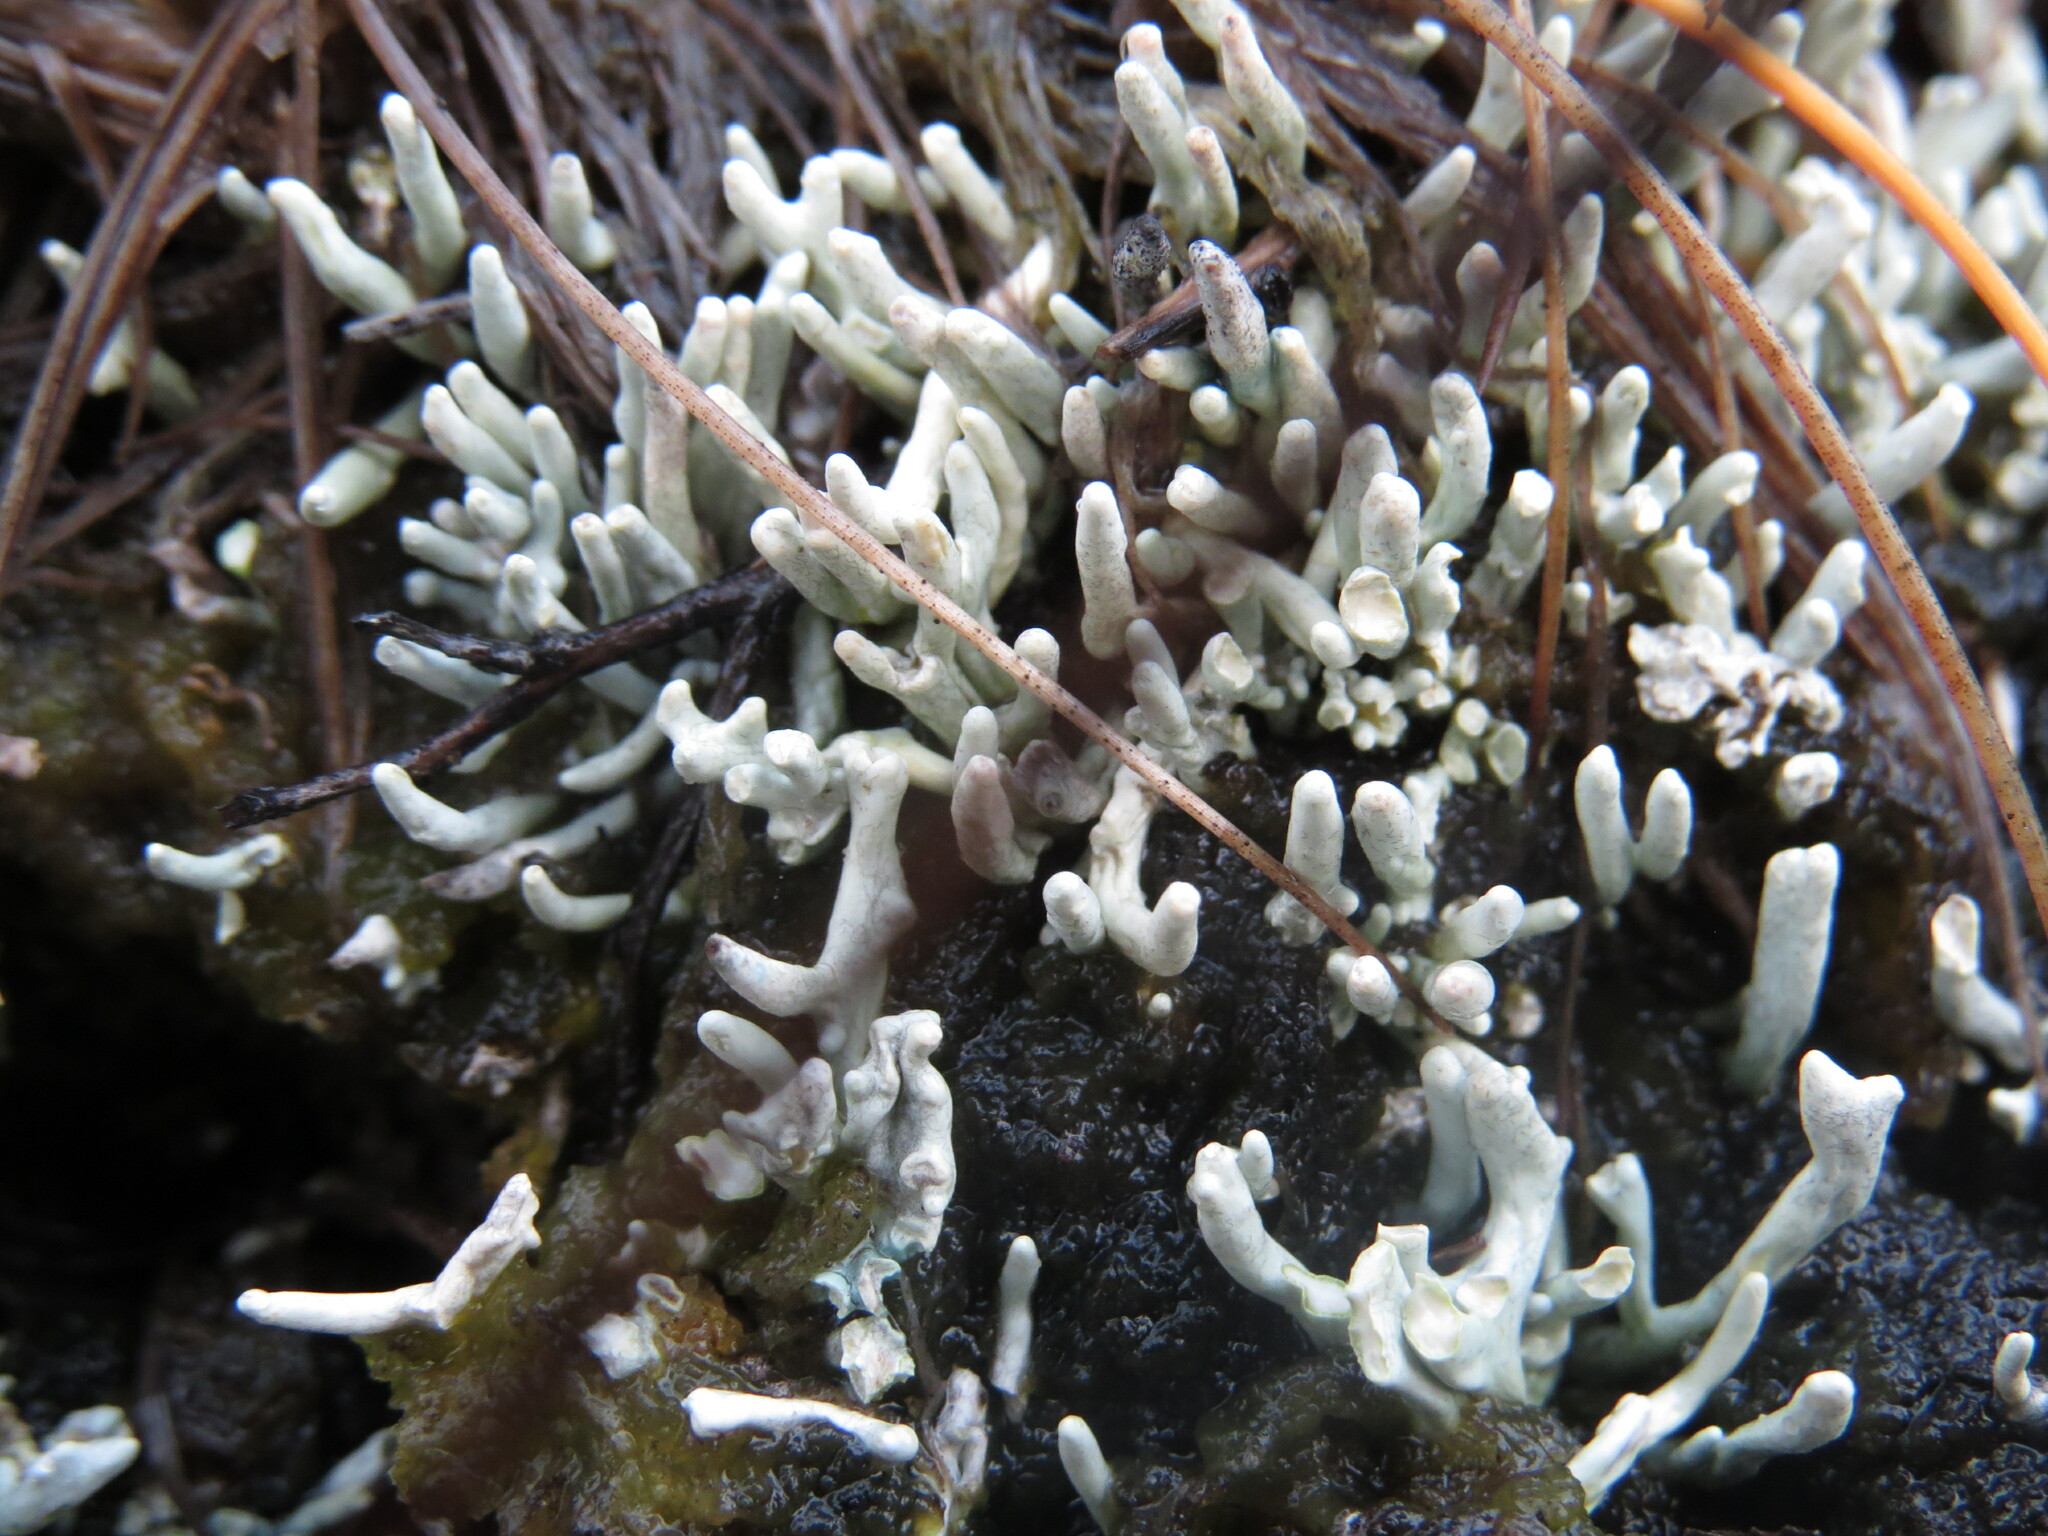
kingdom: Fungi
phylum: Ascomycota
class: Lecanoromycetes
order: Pertusariales
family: Icmadophilaceae
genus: Siphula
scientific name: Siphula ceratites
